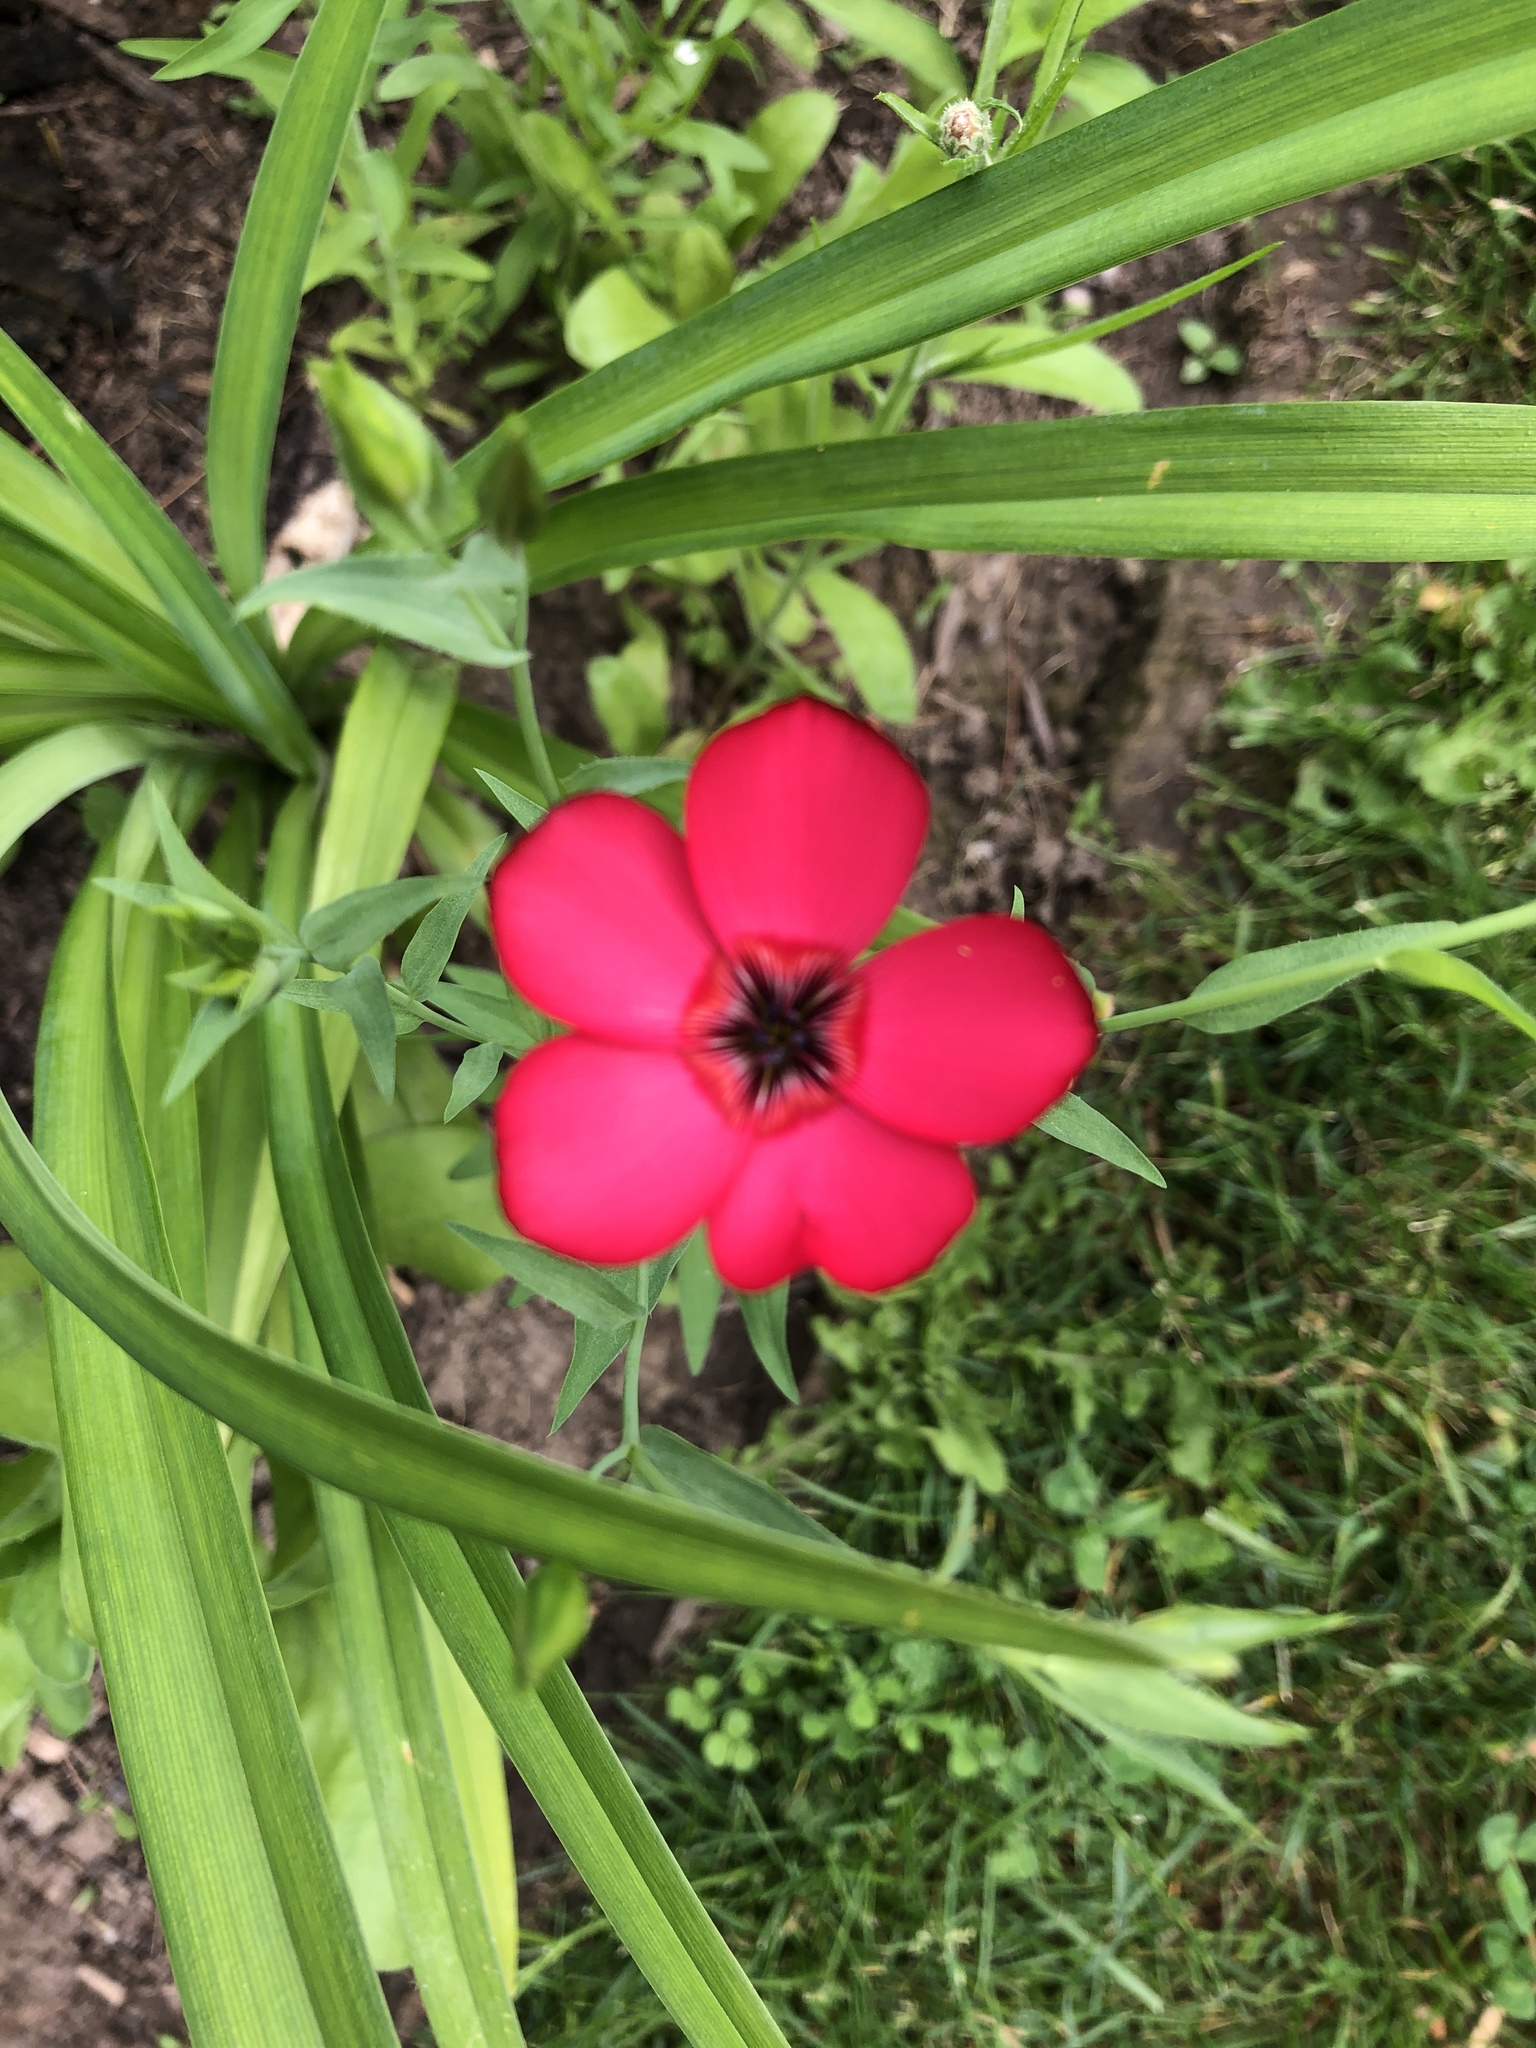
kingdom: Plantae
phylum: Tracheophyta
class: Magnoliopsida
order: Malpighiales
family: Linaceae
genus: Linum
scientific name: Linum grandiflorum
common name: Crimson flax
